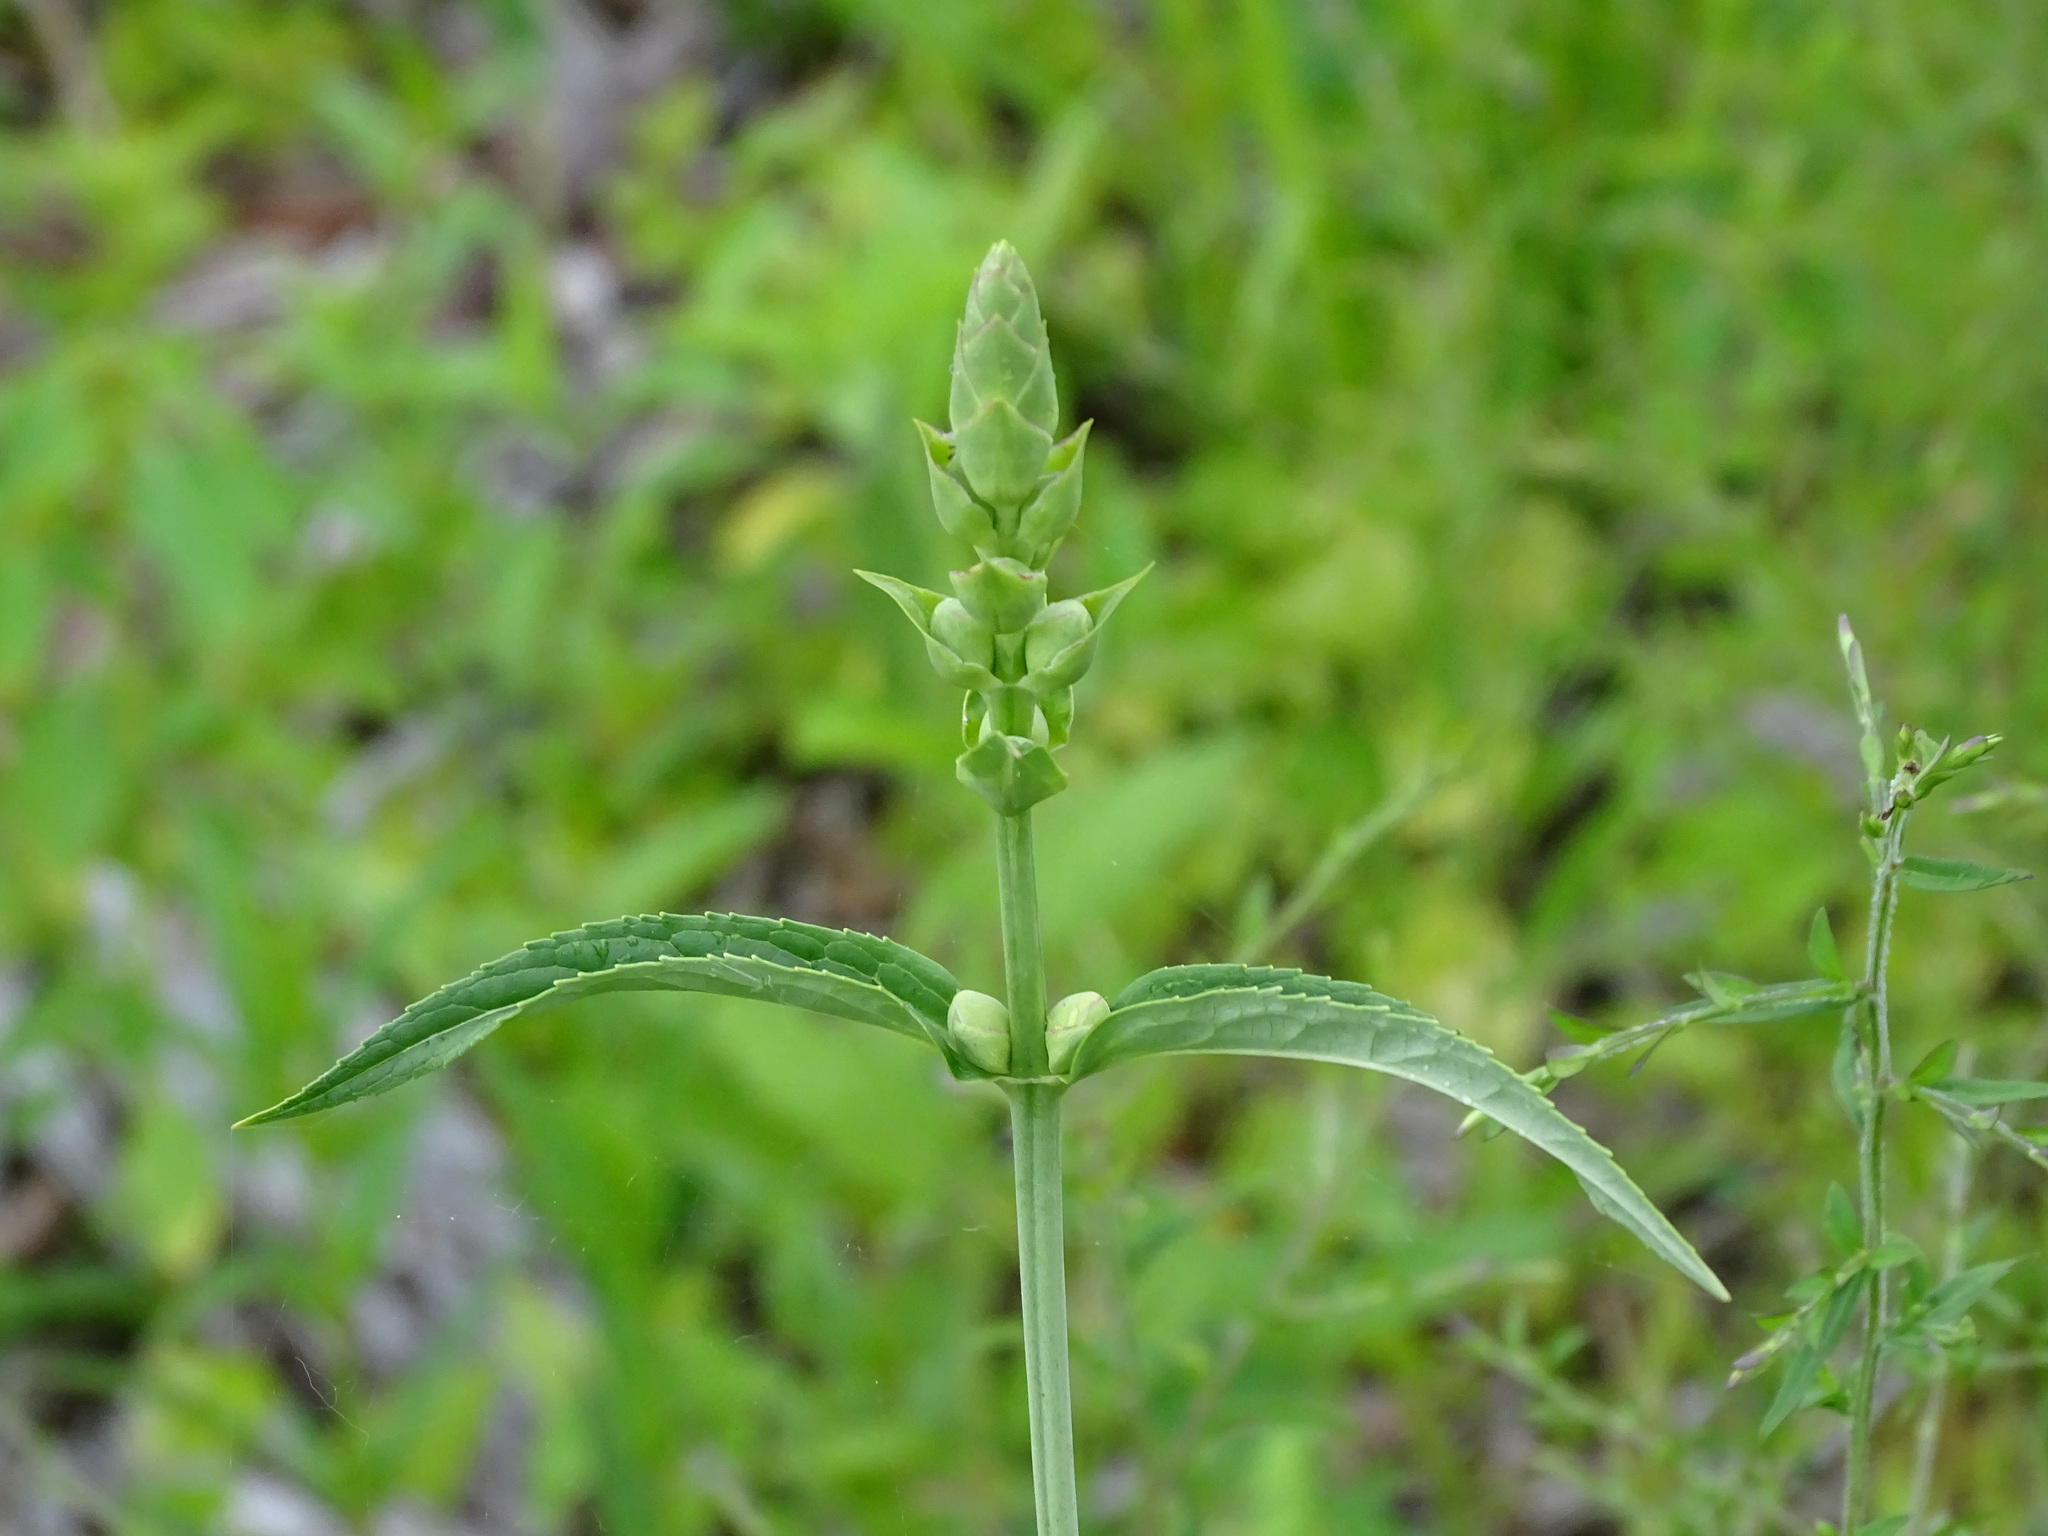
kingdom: Plantae
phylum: Tracheophyta
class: Magnoliopsida
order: Lamiales
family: Plantaginaceae
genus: Chelone
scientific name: Chelone glabra
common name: Snakehead
